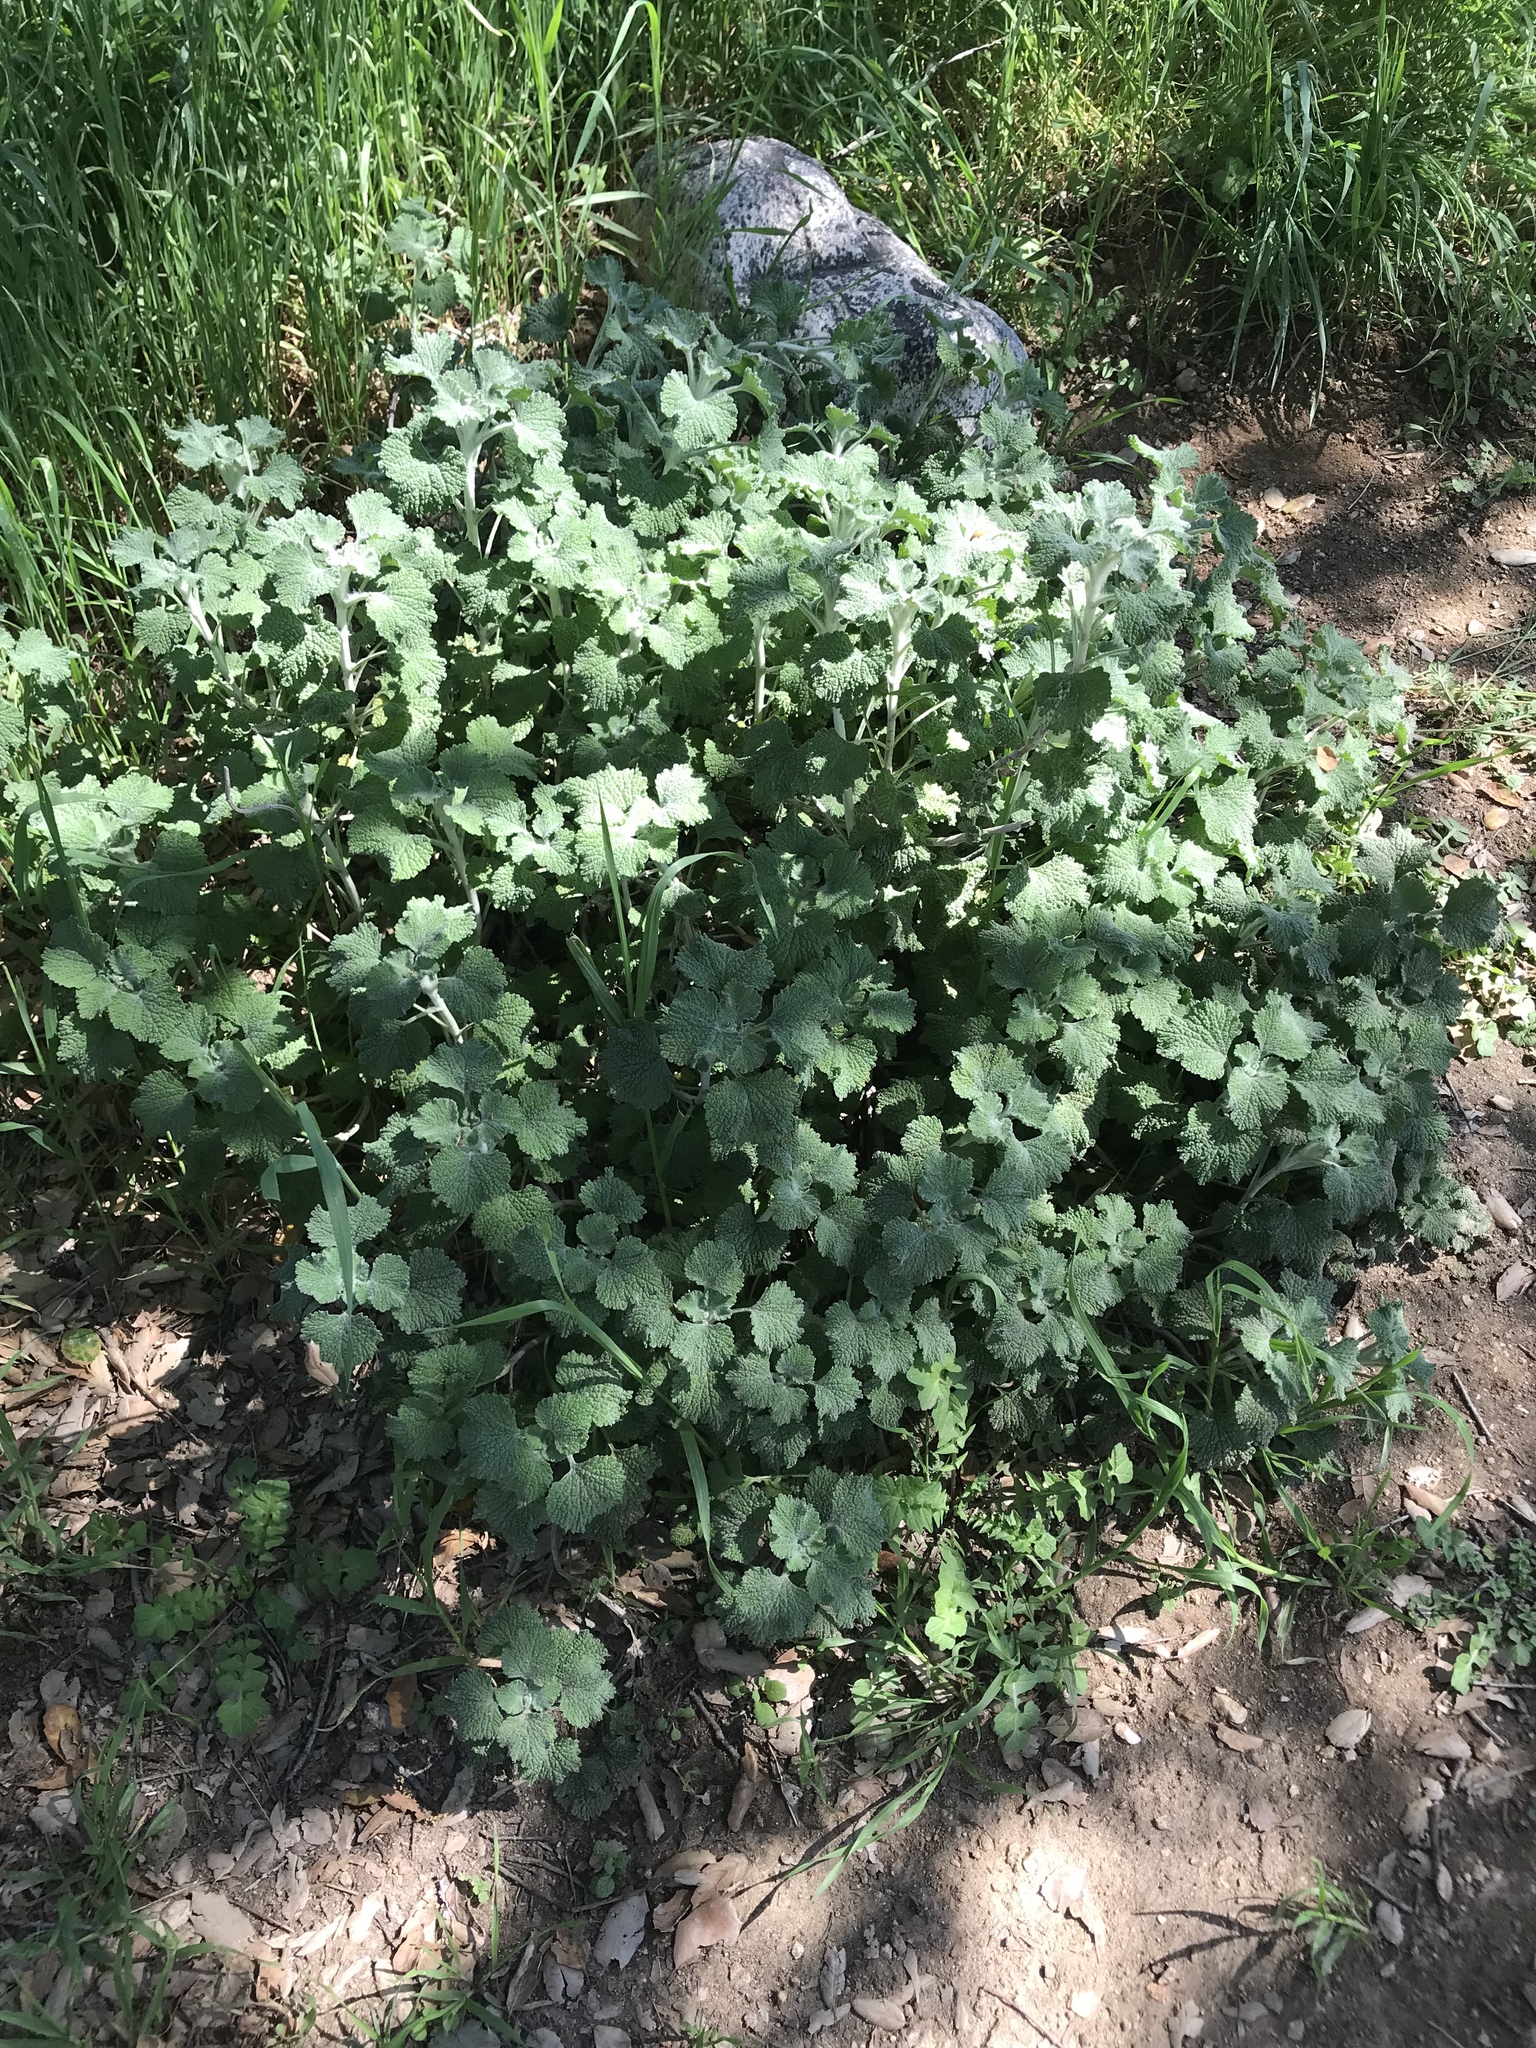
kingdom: Plantae
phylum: Tracheophyta
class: Magnoliopsida
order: Lamiales
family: Lamiaceae
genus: Marrubium
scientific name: Marrubium vulgare
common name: Horehound
